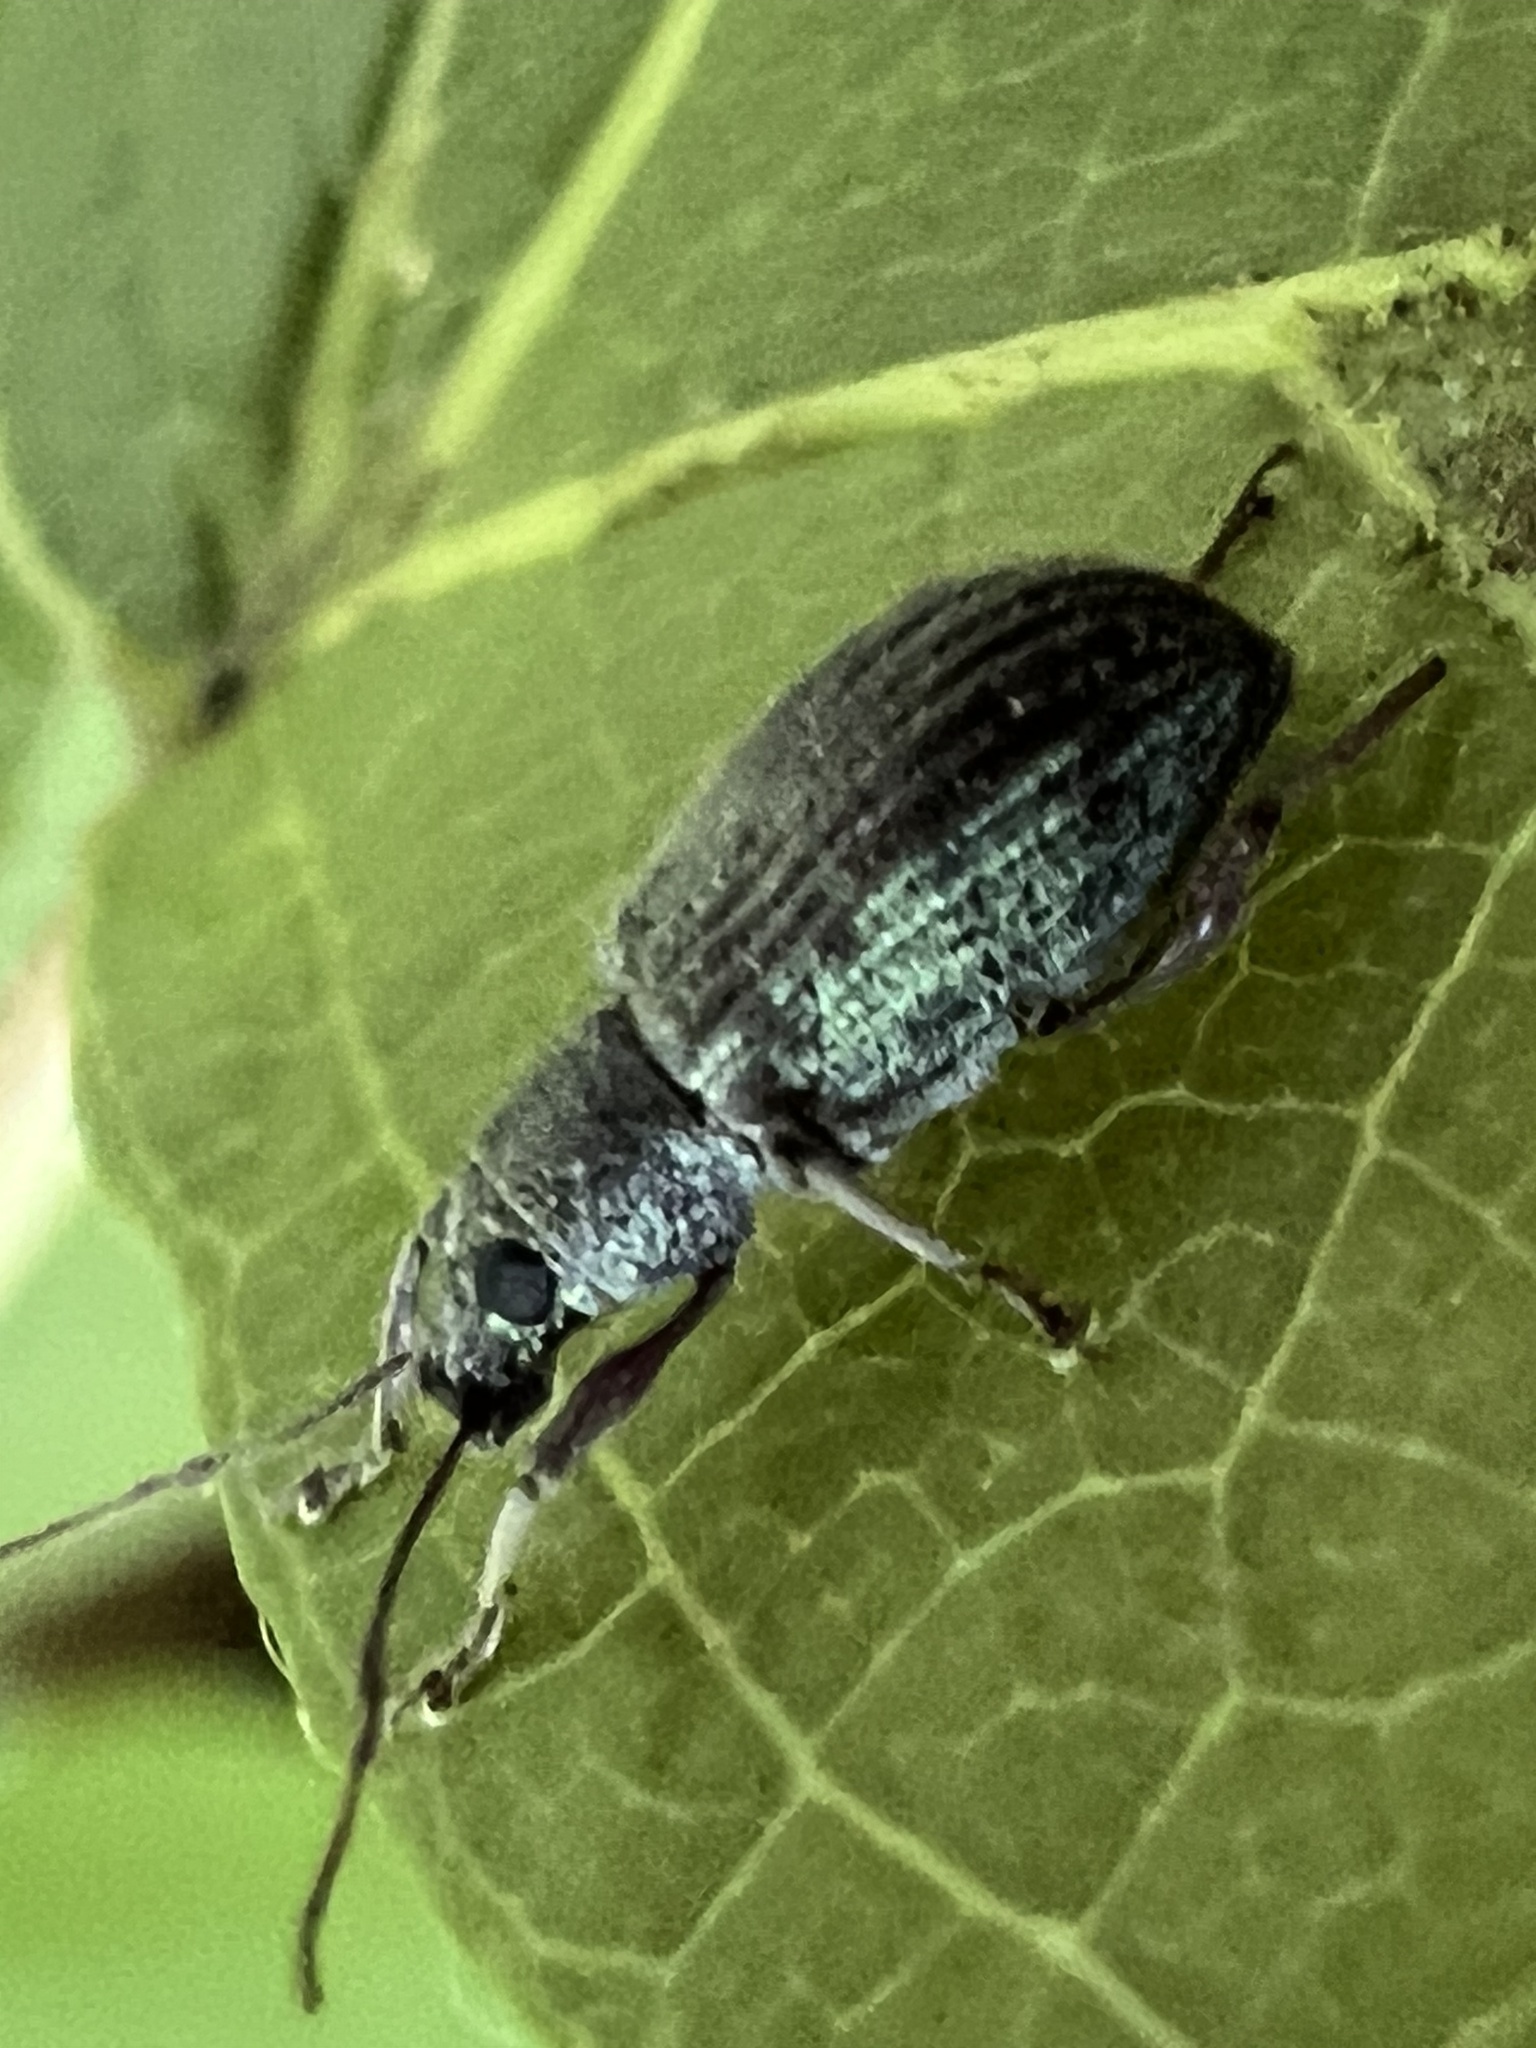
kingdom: Animalia
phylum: Arthropoda
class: Insecta
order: Coleoptera
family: Curculionidae
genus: Cyrtepistomus
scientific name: Cyrtepistomus castaneus
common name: Weevil
